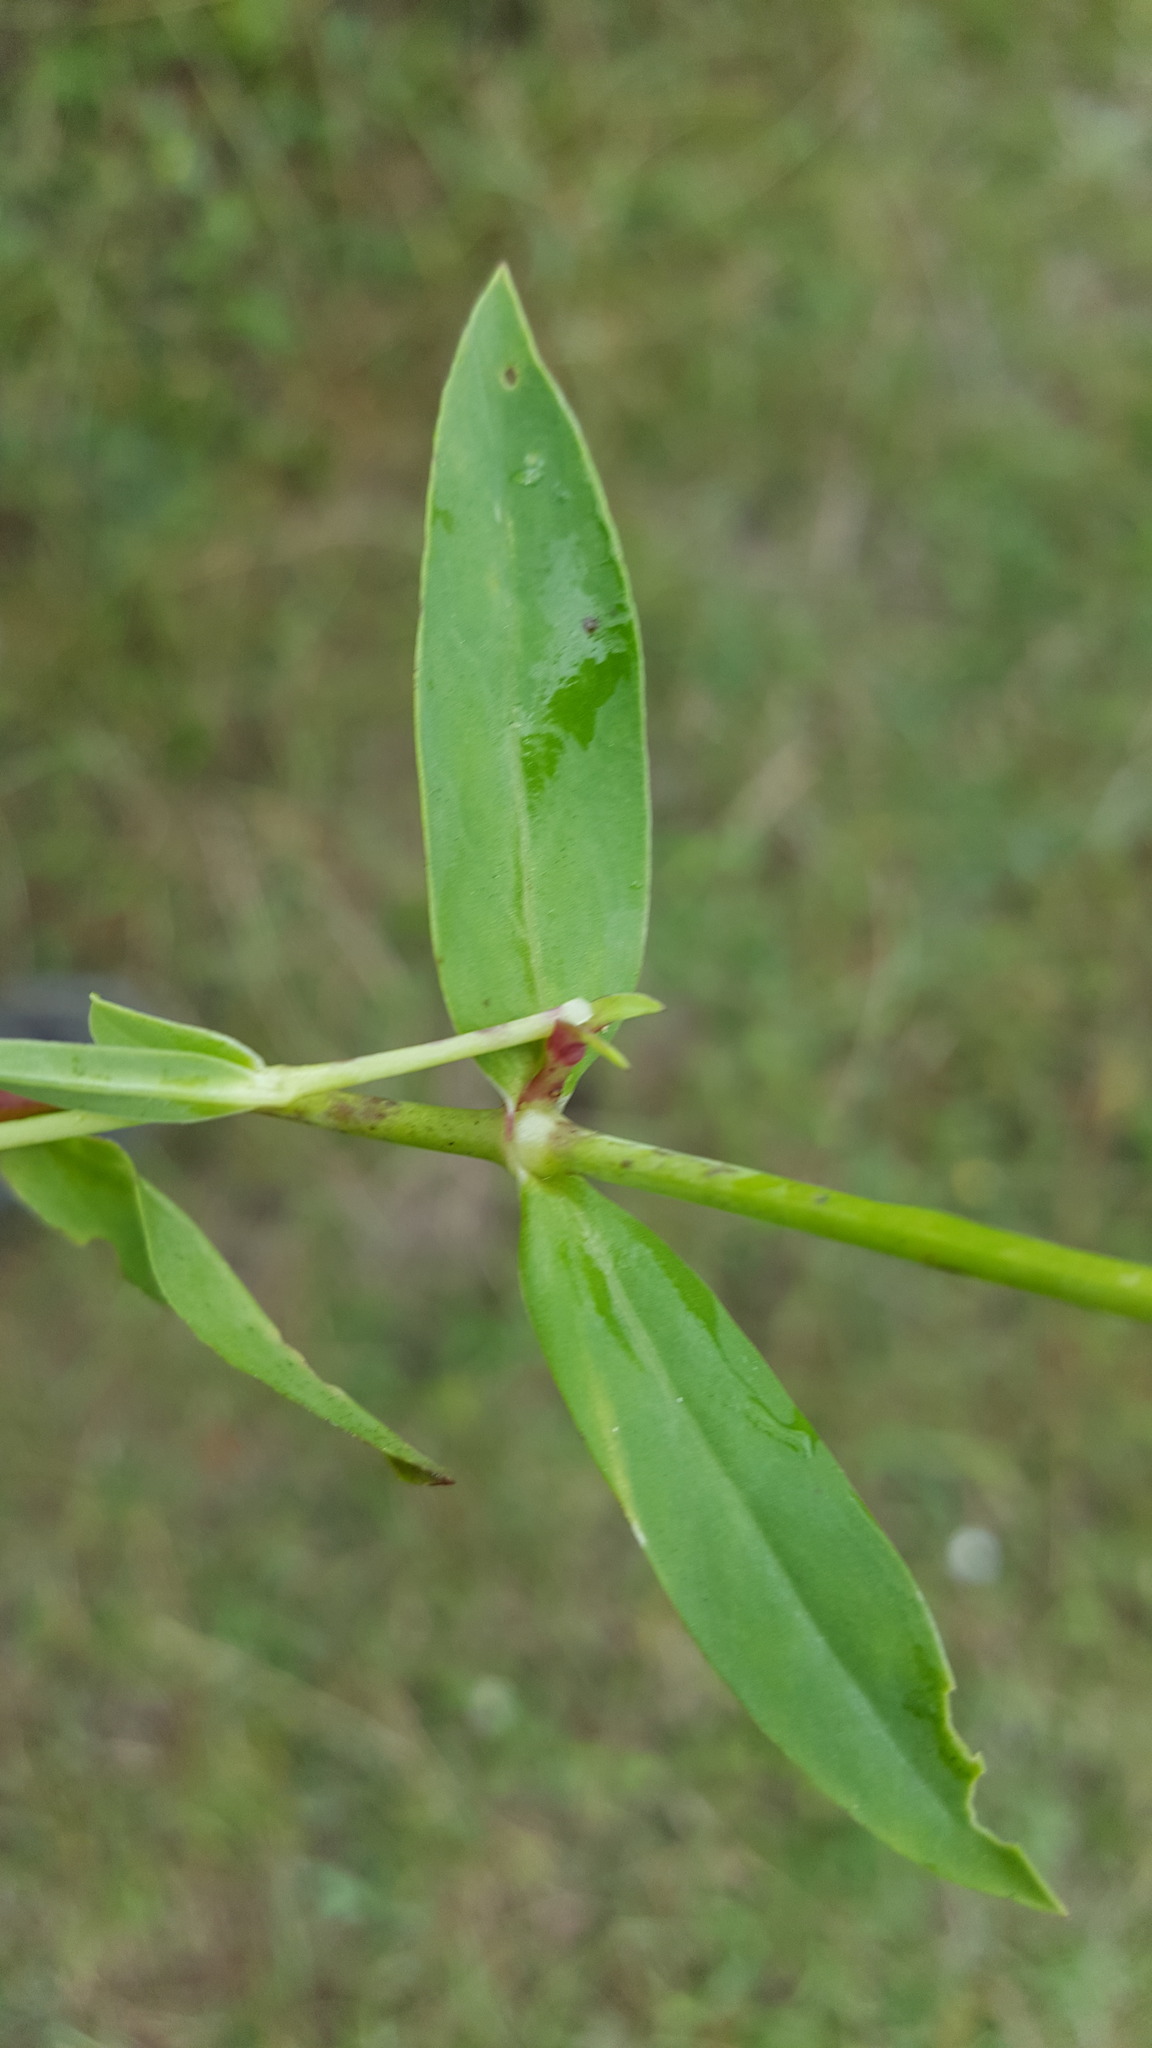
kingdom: Plantae
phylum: Tracheophyta
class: Magnoliopsida
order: Caryophyllales
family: Caryophyllaceae
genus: Silene
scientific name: Silene vulgaris
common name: Bladder campion
